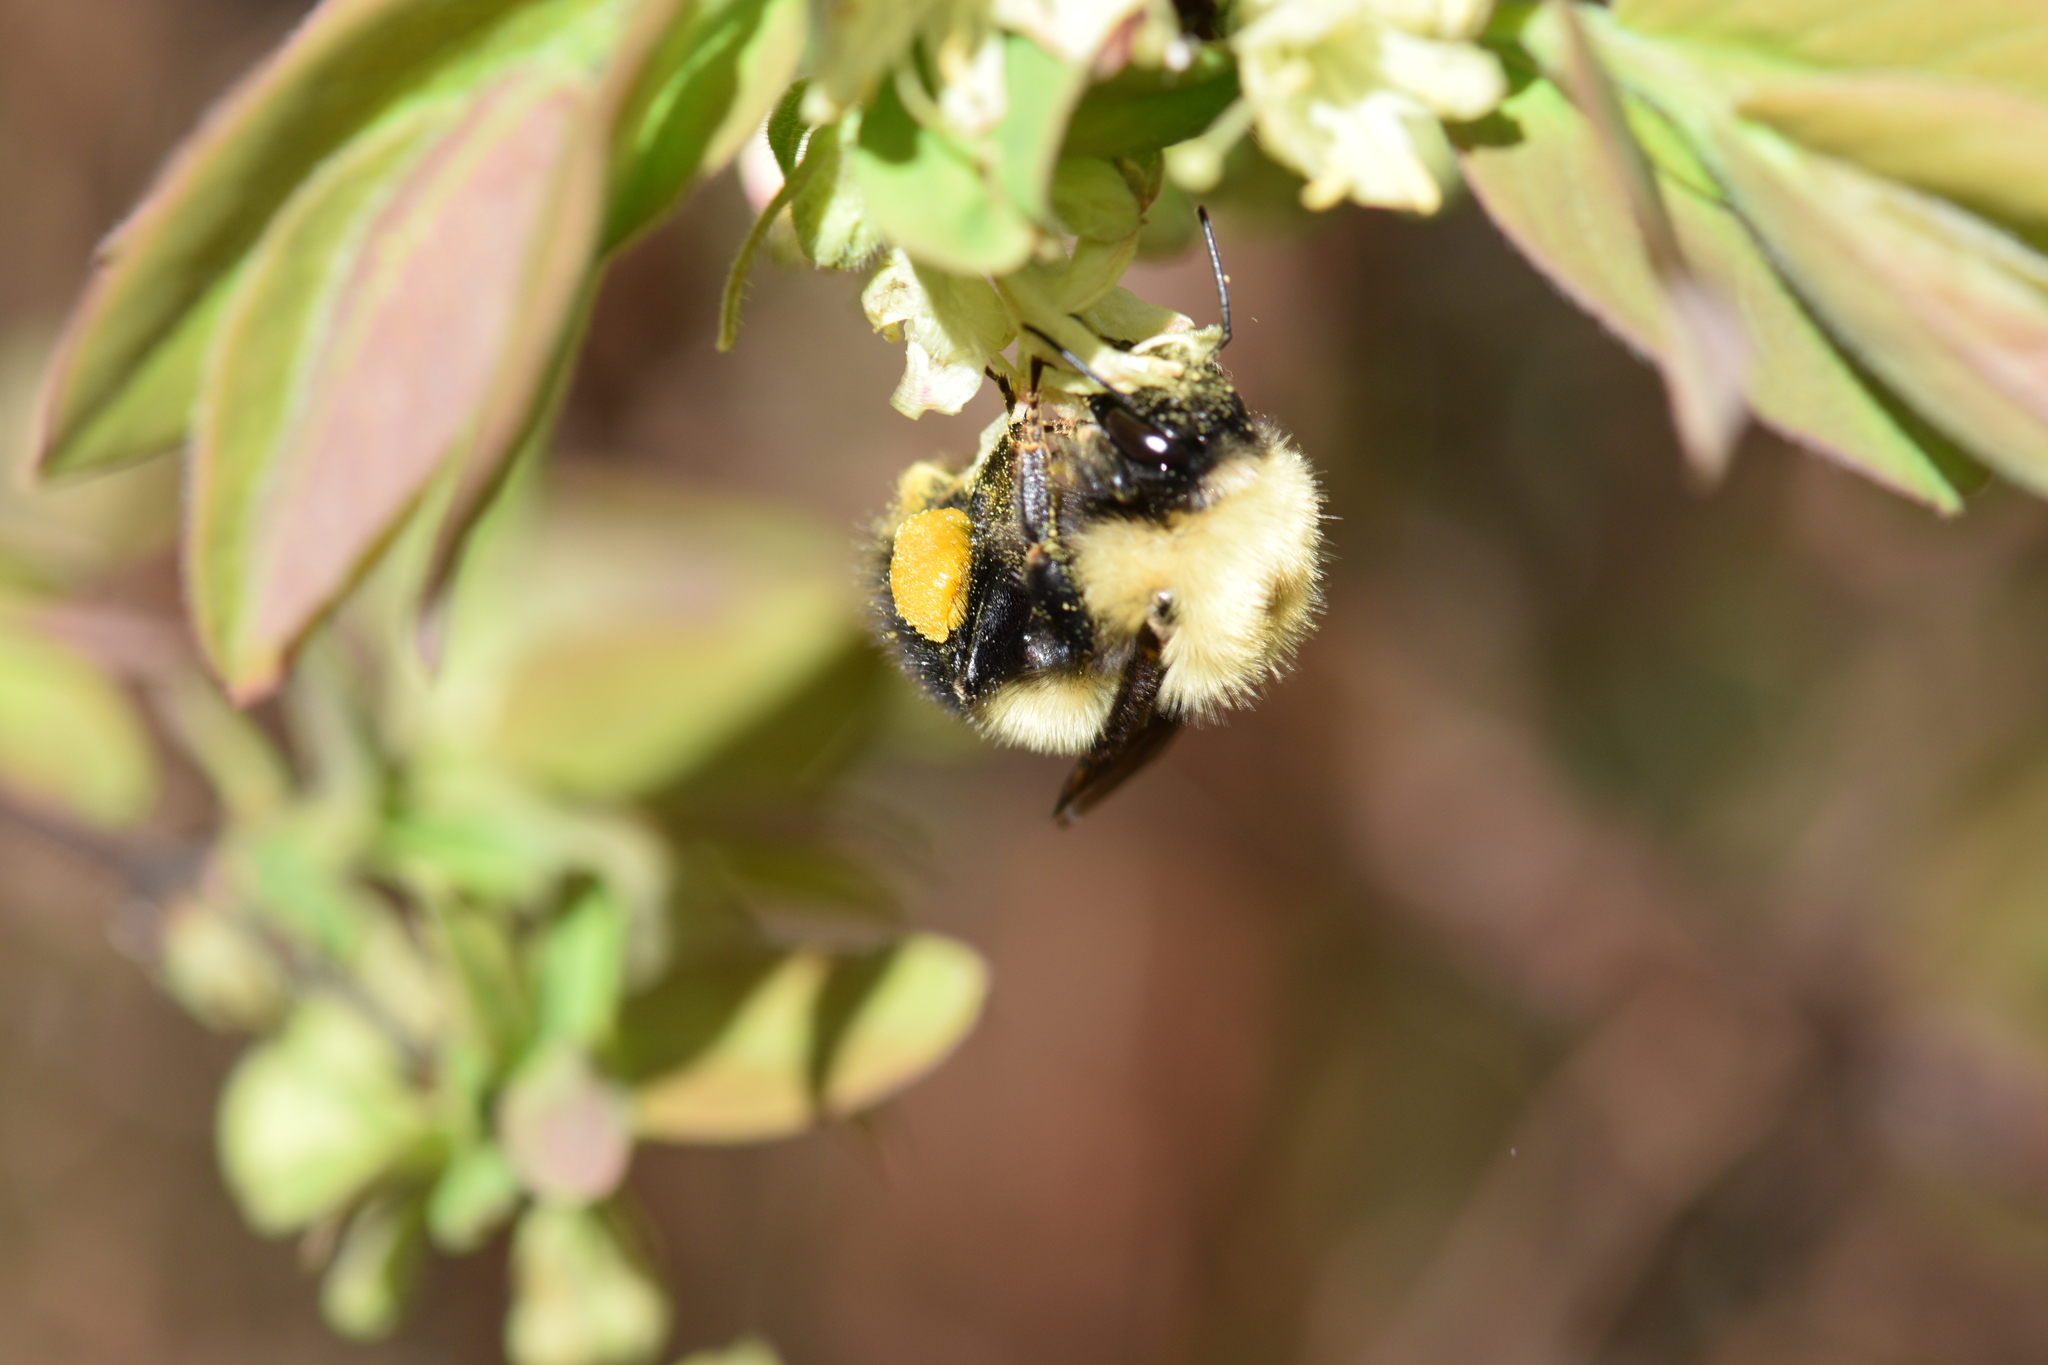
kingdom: Animalia
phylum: Arthropoda
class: Insecta
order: Hymenoptera
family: Apidae
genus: Bombus
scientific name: Bombus perplexus
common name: Confusing bumble bee
